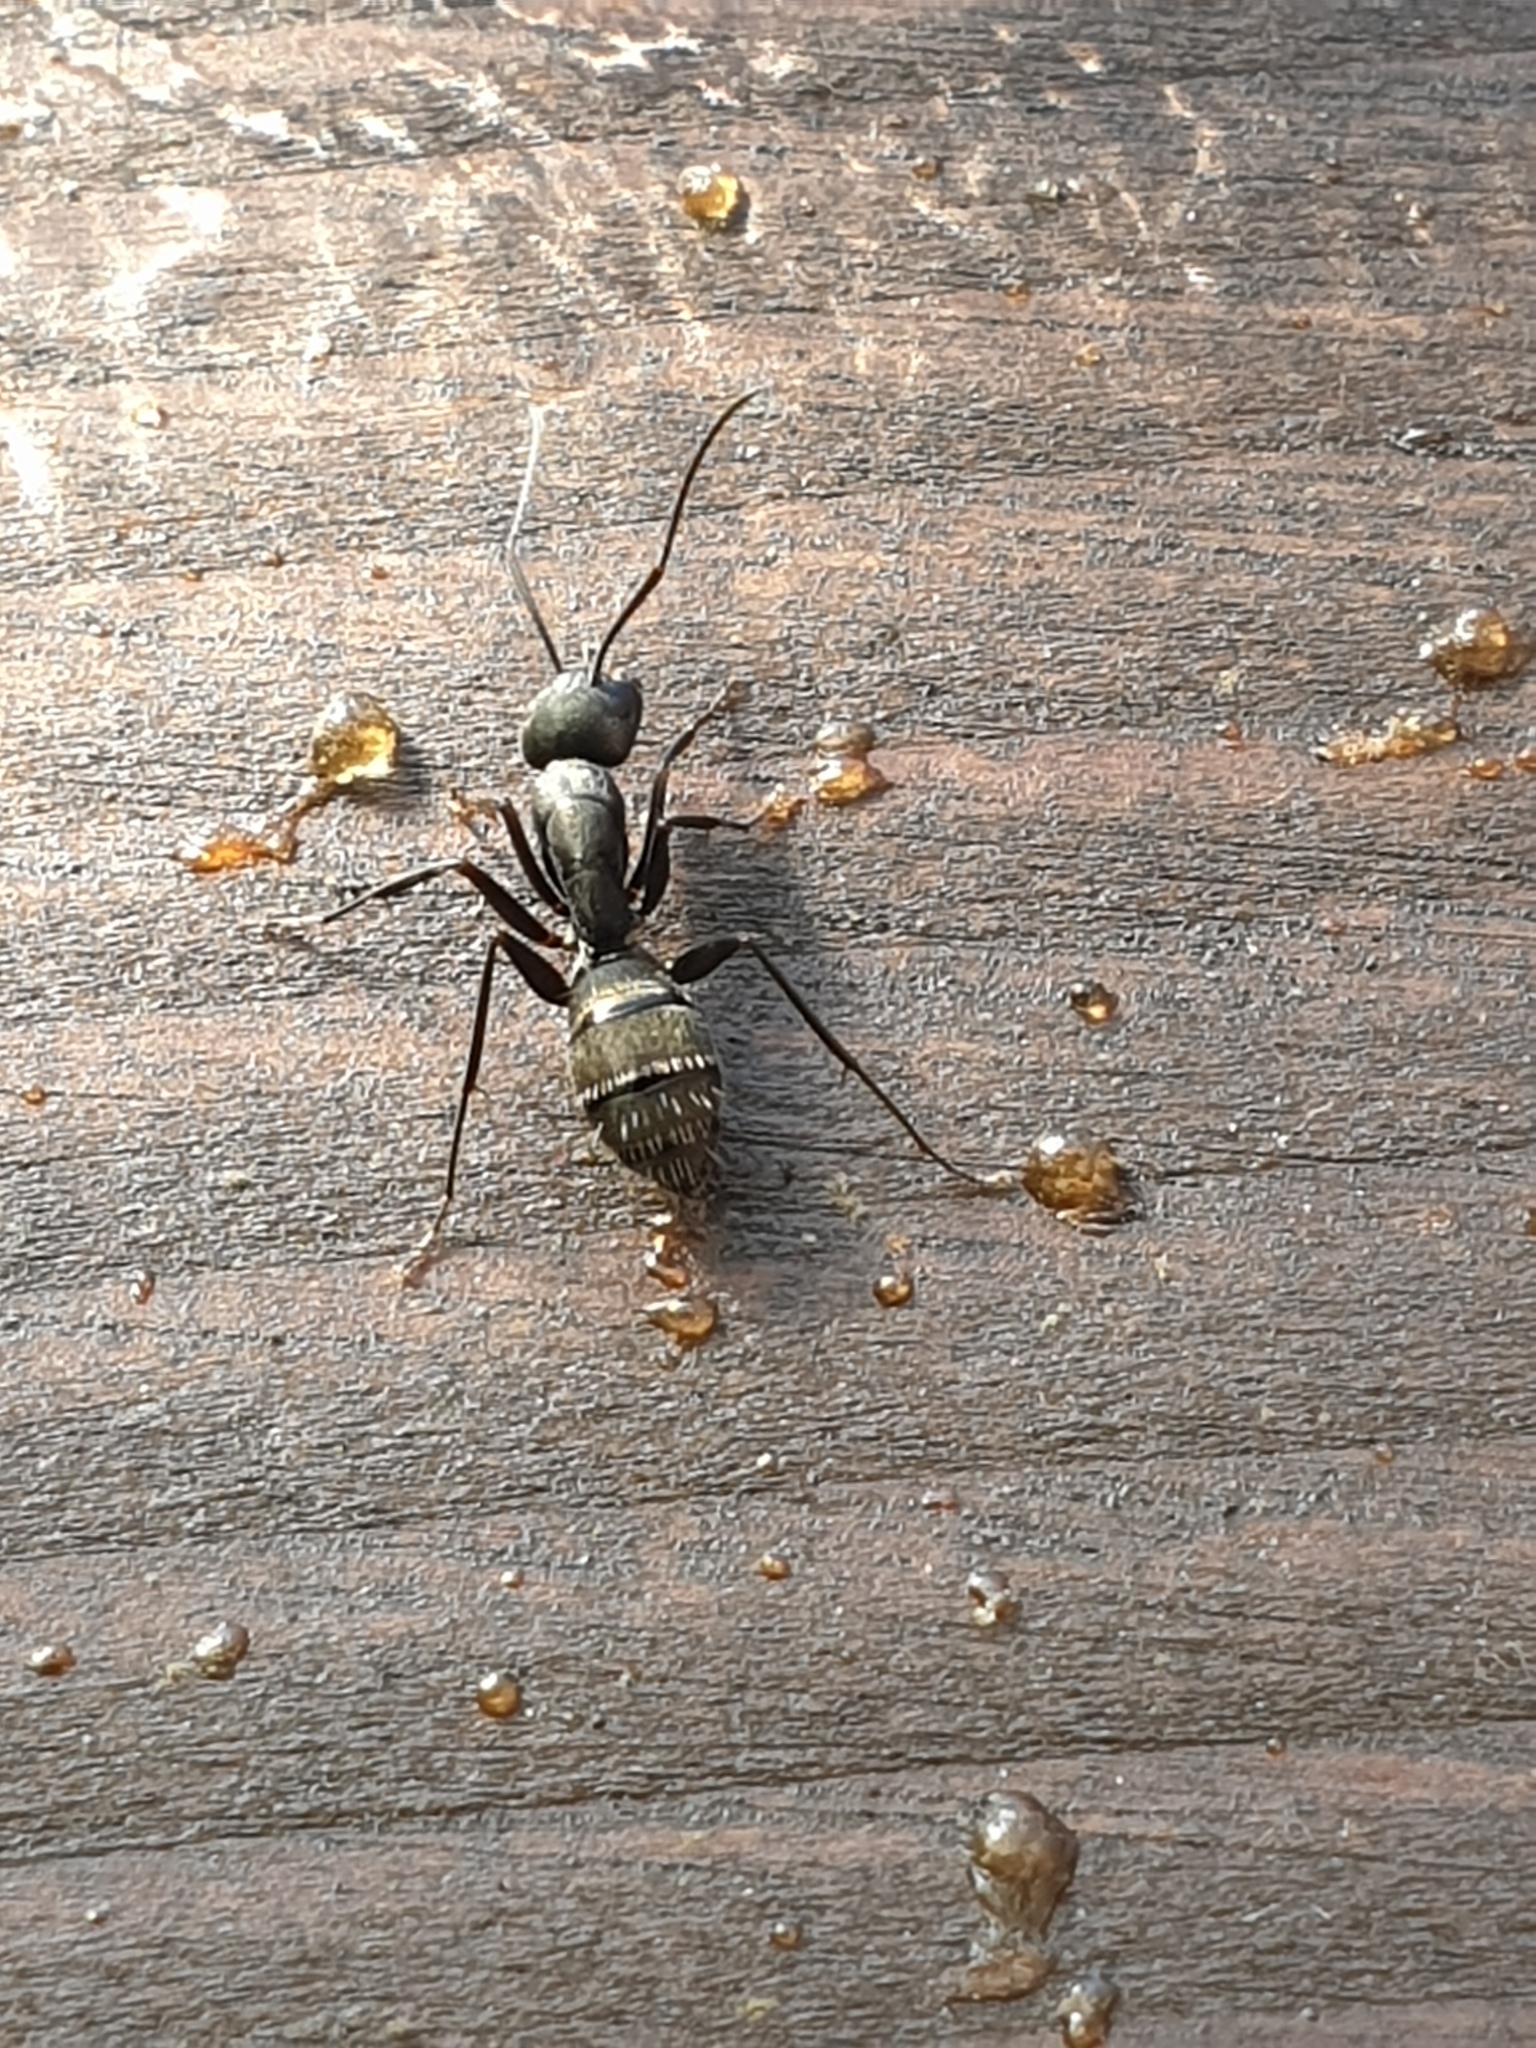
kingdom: Animalia
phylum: Arthropoda
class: Insecta
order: Hymenoptera
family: Formicidae
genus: Camponotus
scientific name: Camponotus japonicus
